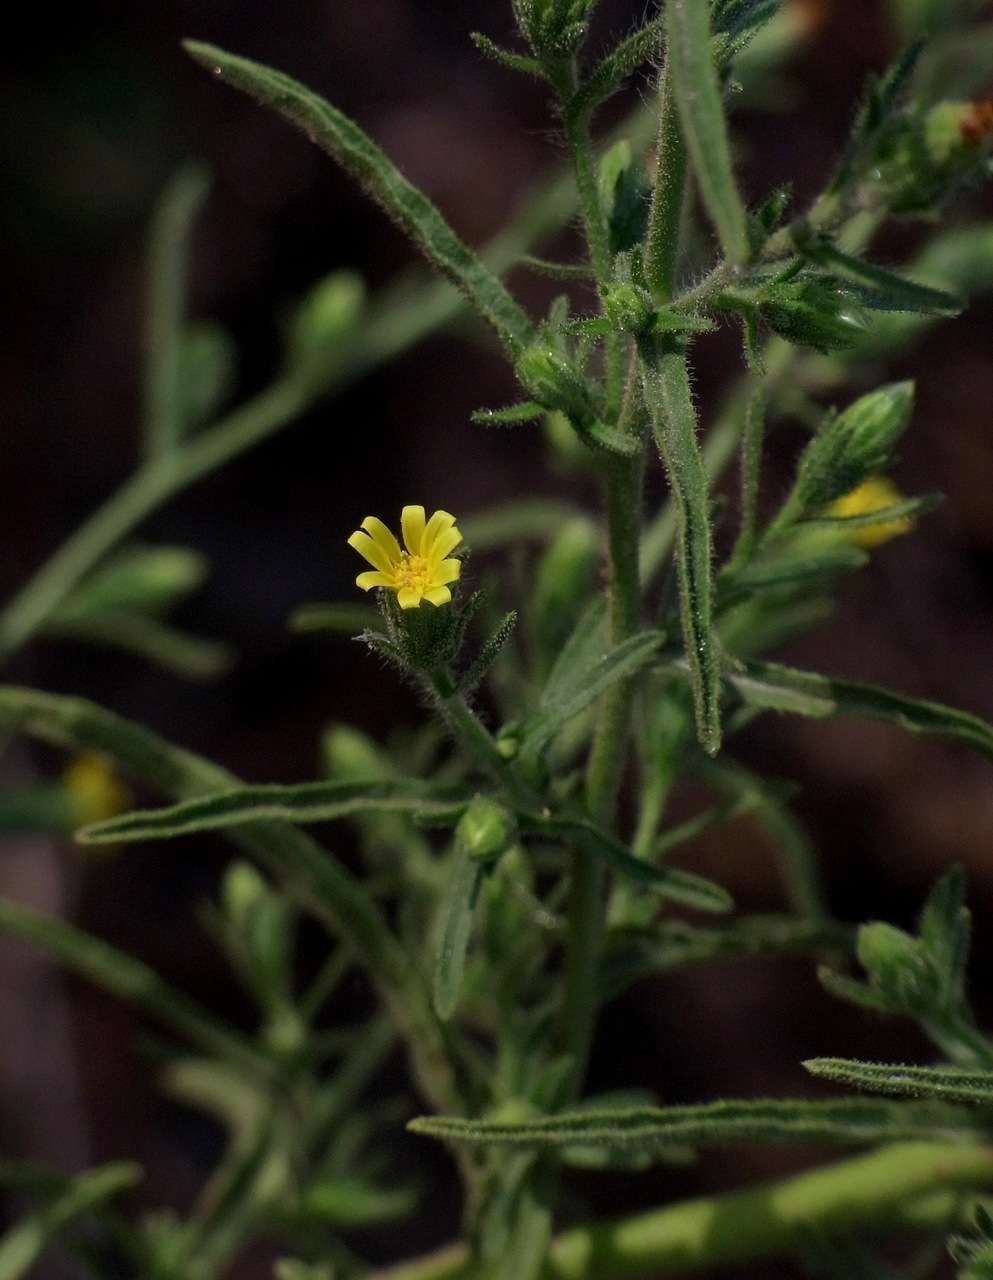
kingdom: Plantae
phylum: Tracheophyta
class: Magnoliopsida
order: Asterales
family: Asteraceae
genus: Dittrichia
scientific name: Dittrichia graveolens
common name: Stinking fleabane
